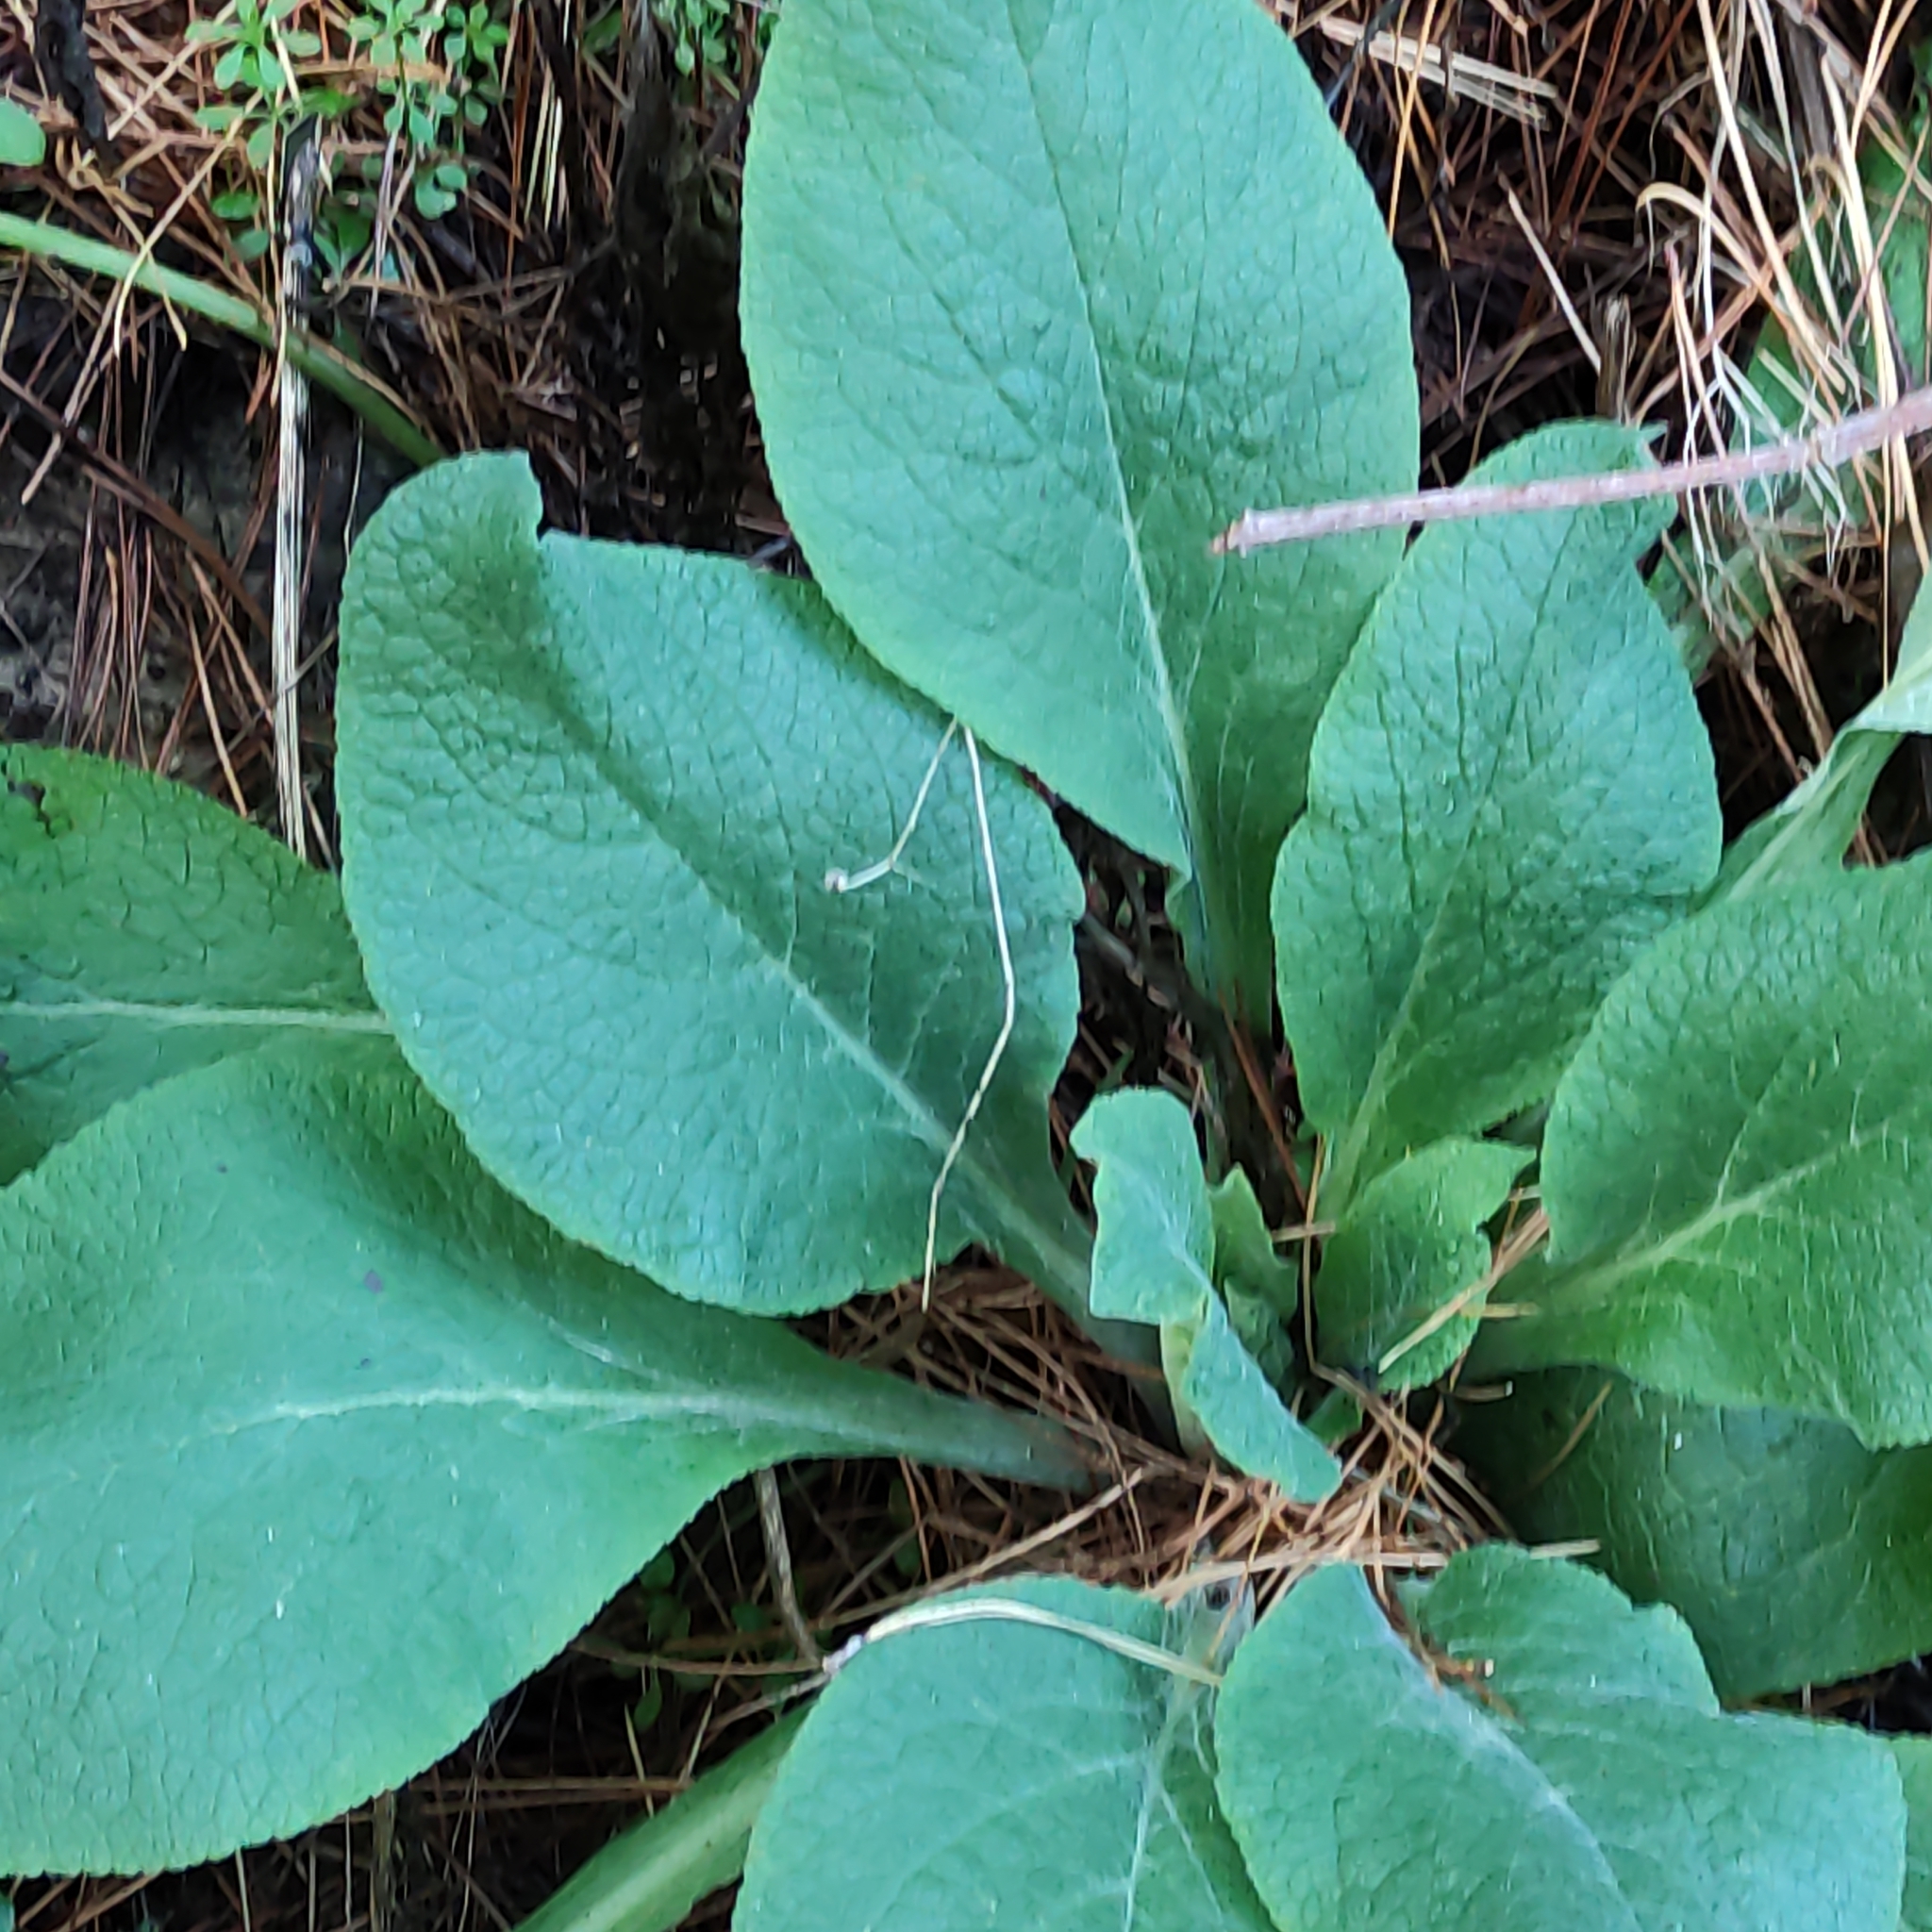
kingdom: Plantae
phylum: Tracheophyta
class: Magnoliopsida
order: Lamiales
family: Plantaginaceae
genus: Digitalis
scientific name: Digitalis purpurea
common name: Foxglove
